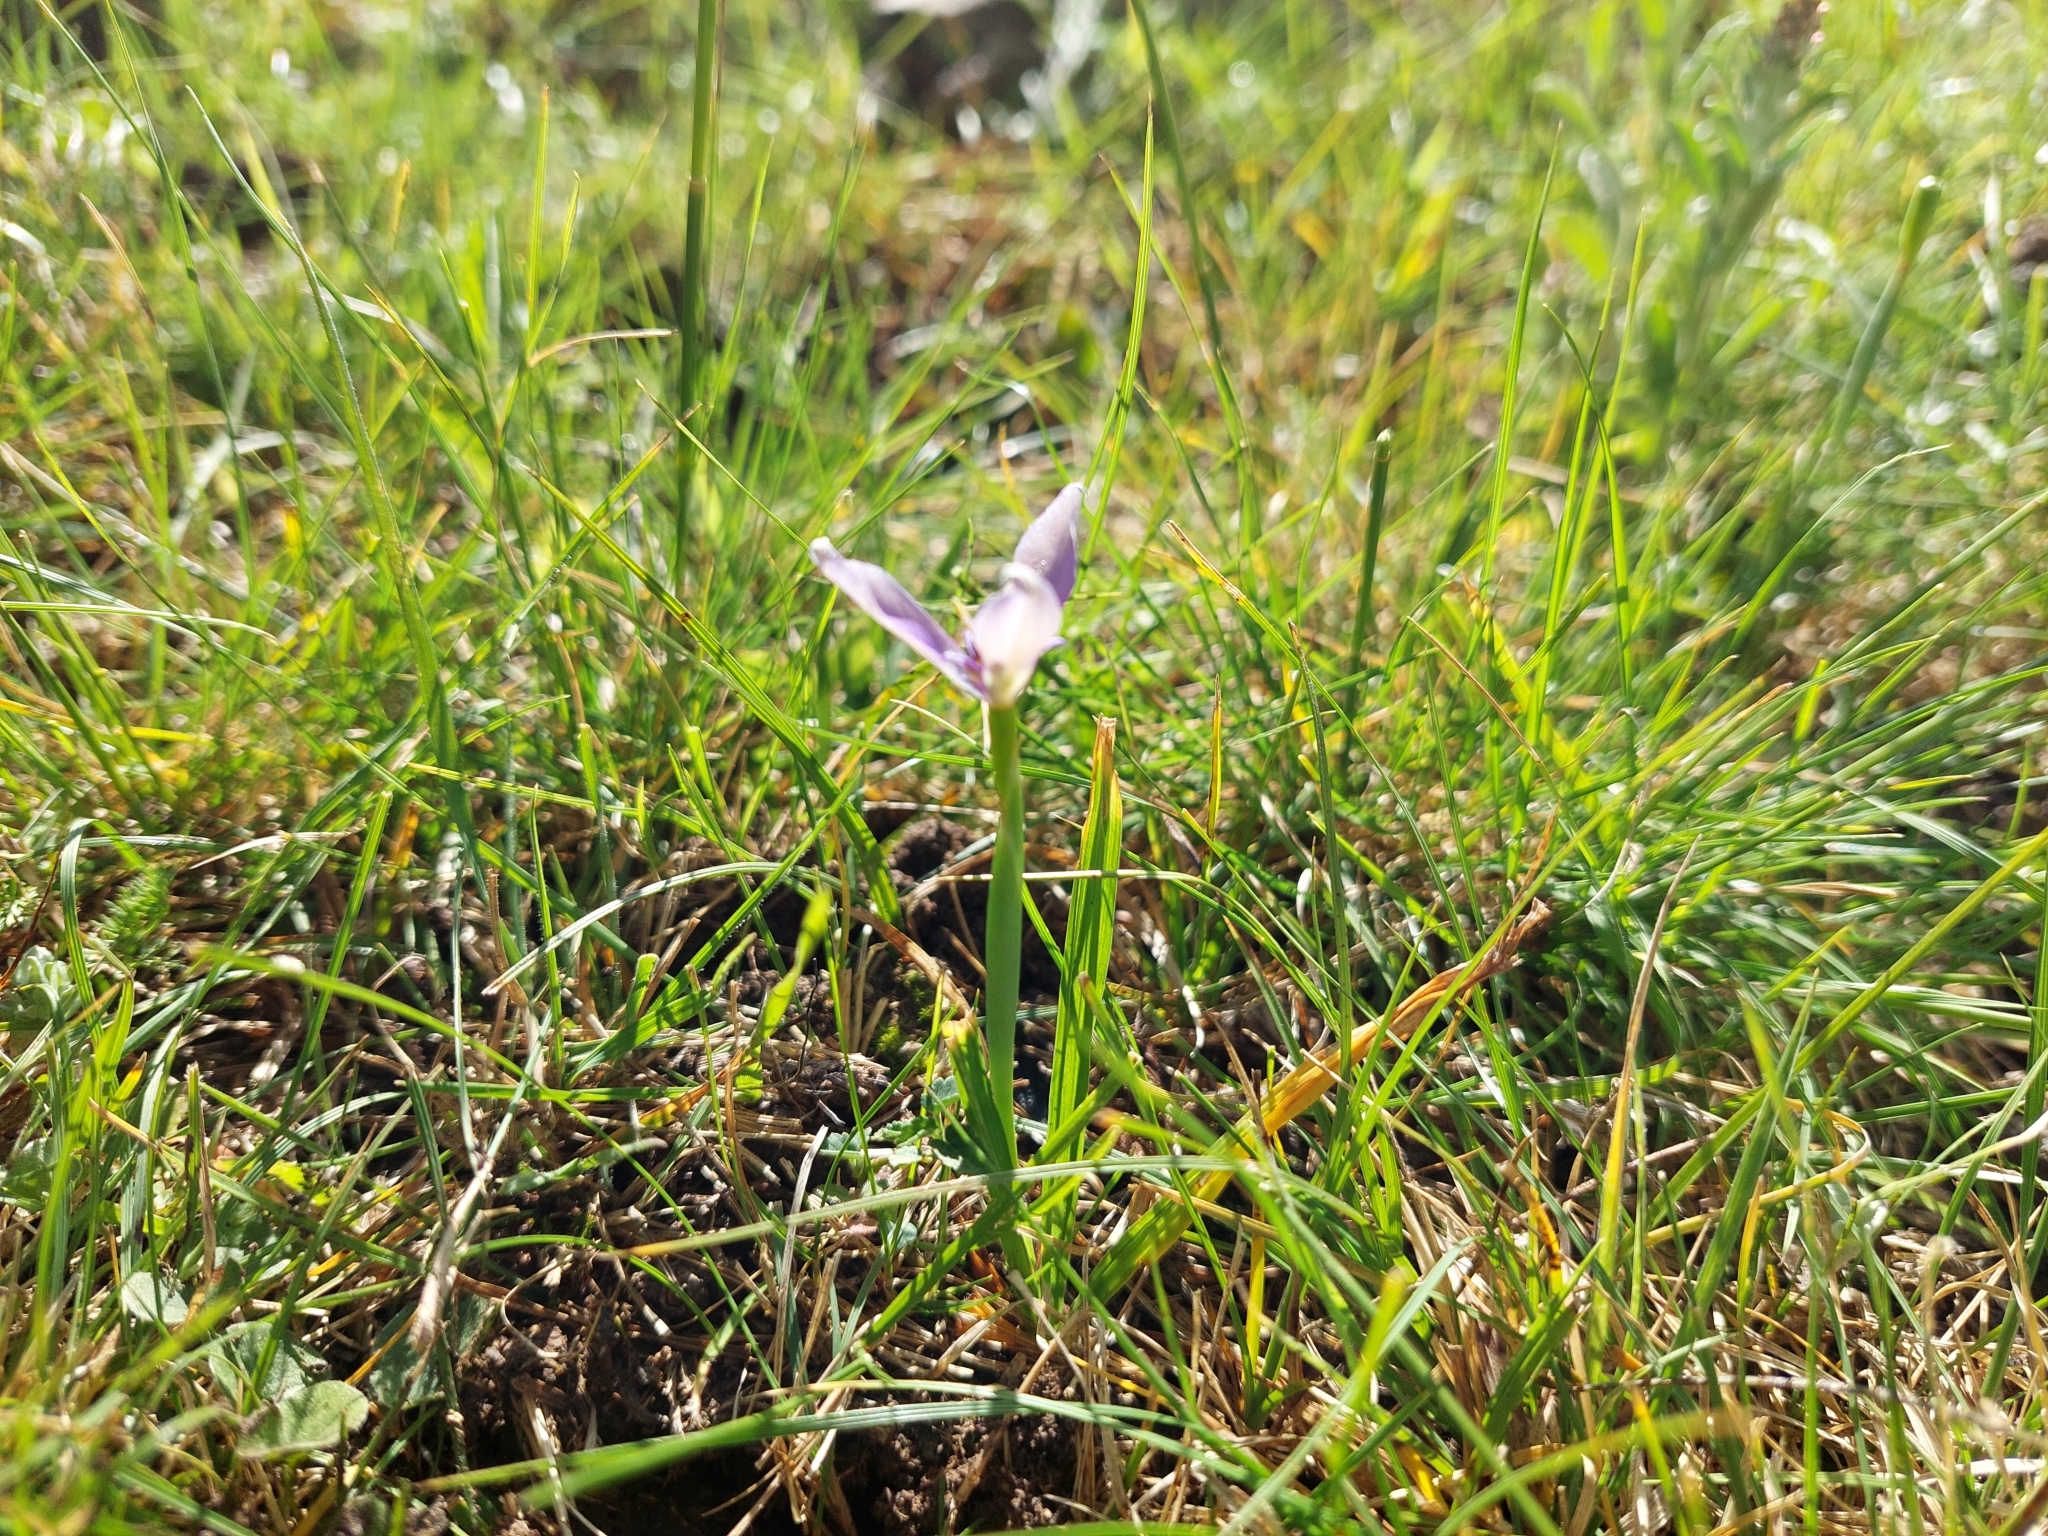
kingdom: Plantae
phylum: Tracheophyta
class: Liliopsida
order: Asparagales
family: Iridaceae
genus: Herbertia
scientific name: Herbertia lahue
